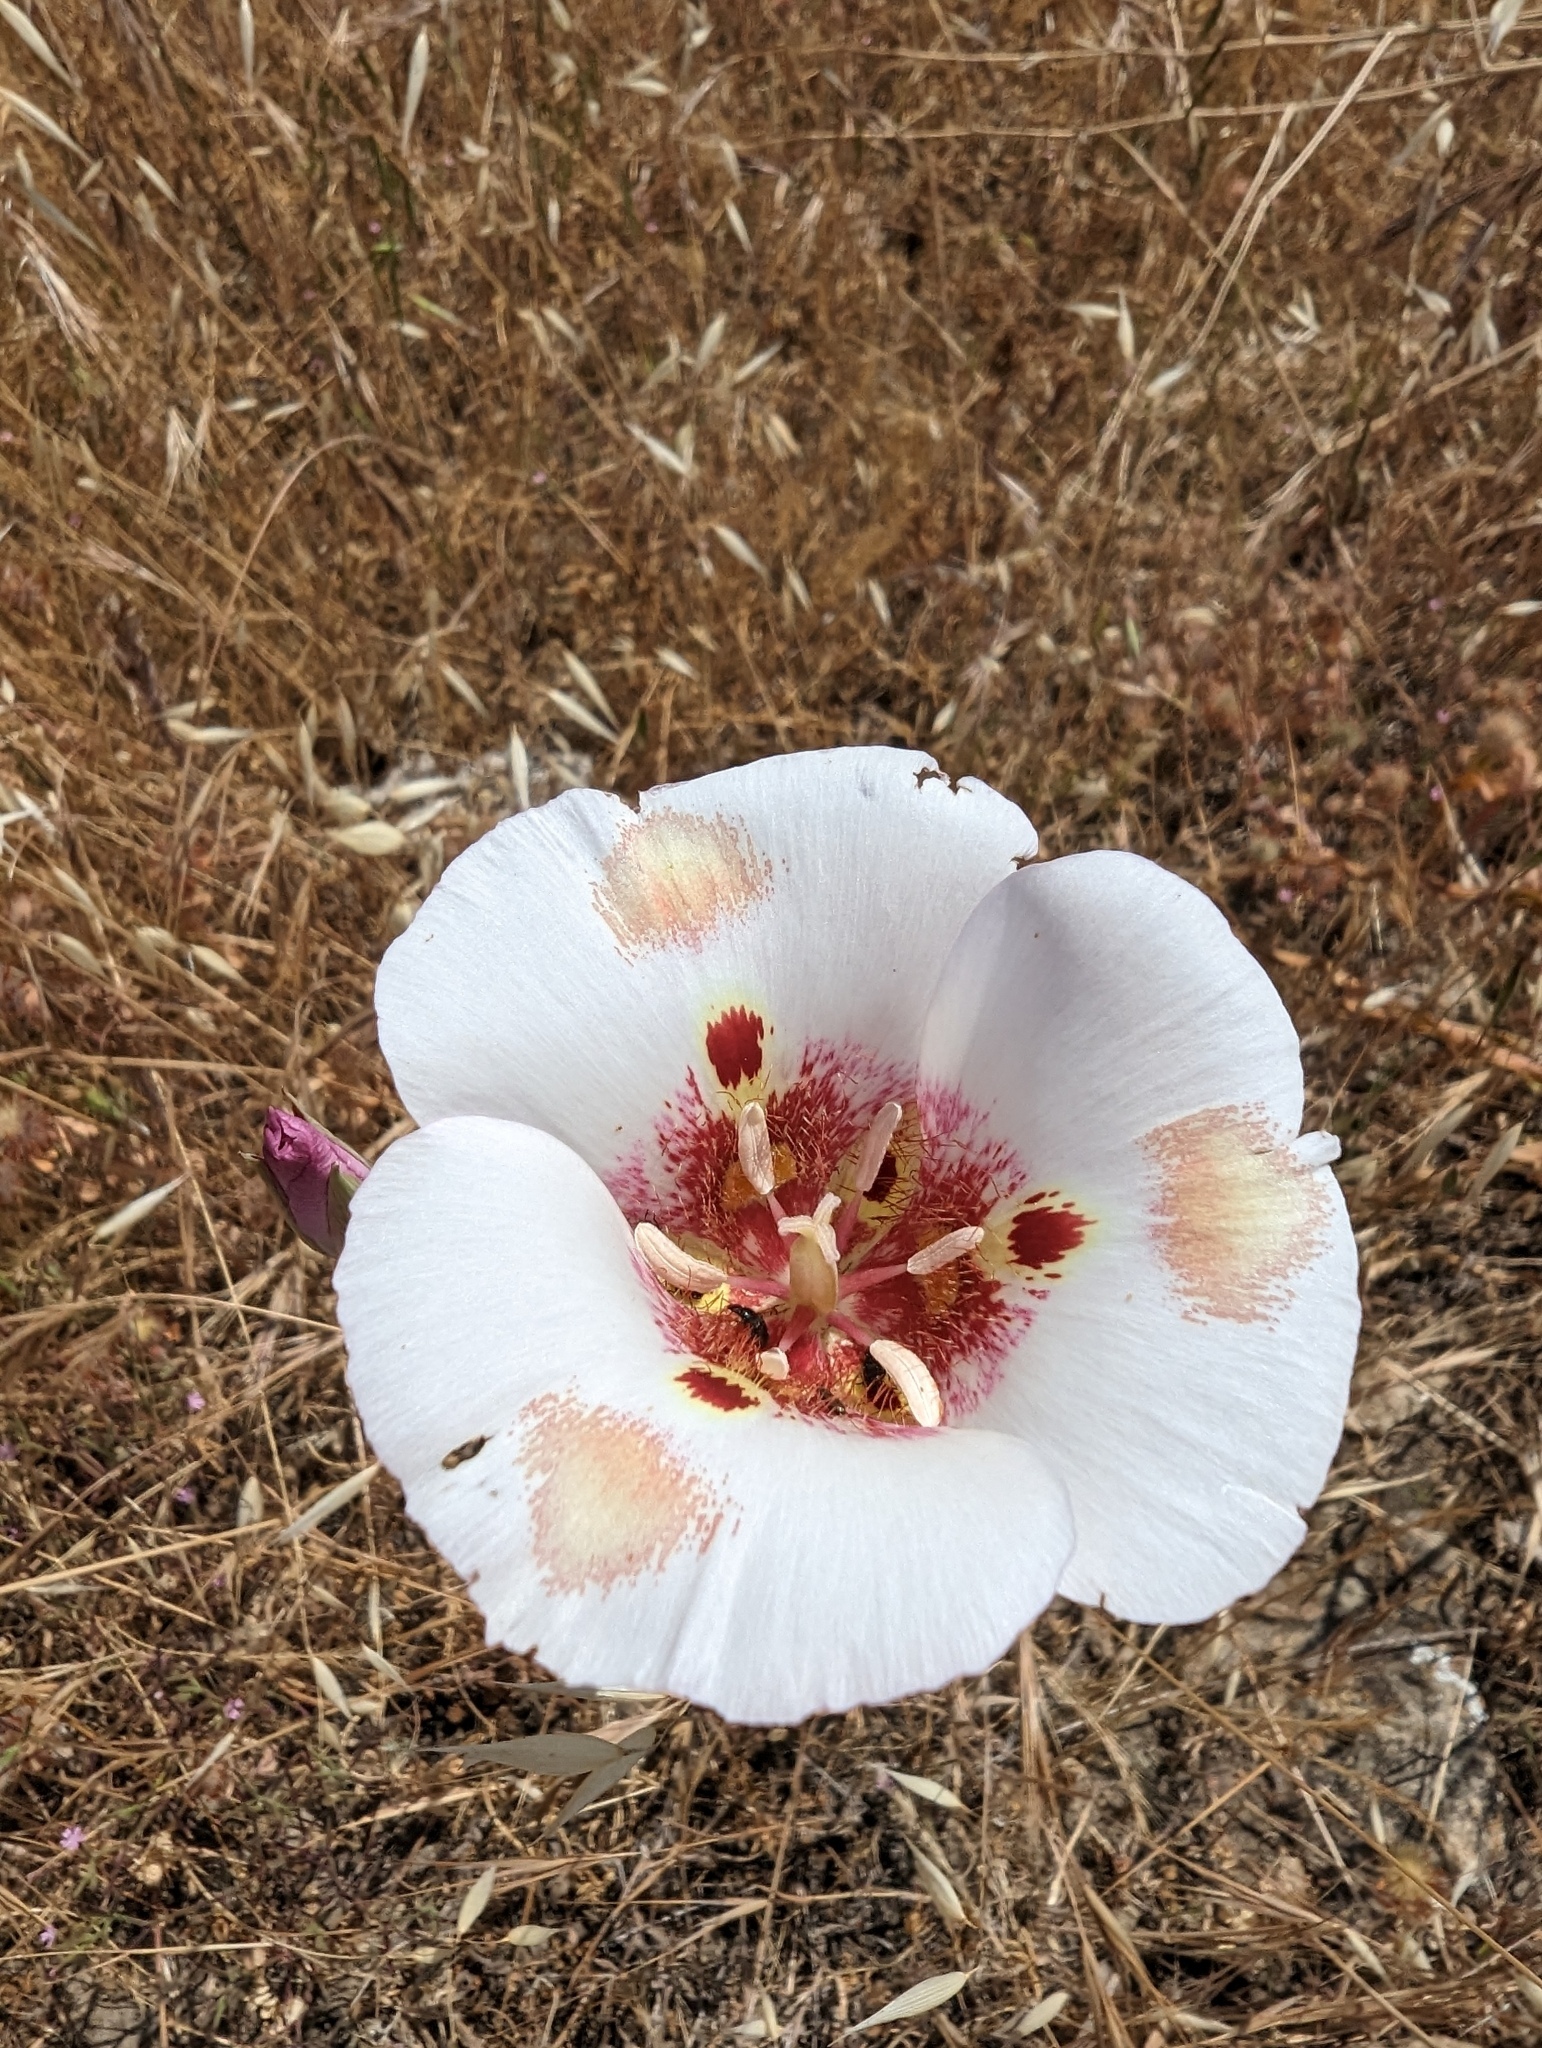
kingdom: Plantae
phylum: Tracheophyta
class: Liliopsida
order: Liliales
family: Liliaceae
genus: Calochortus
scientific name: Calochortus venustus
